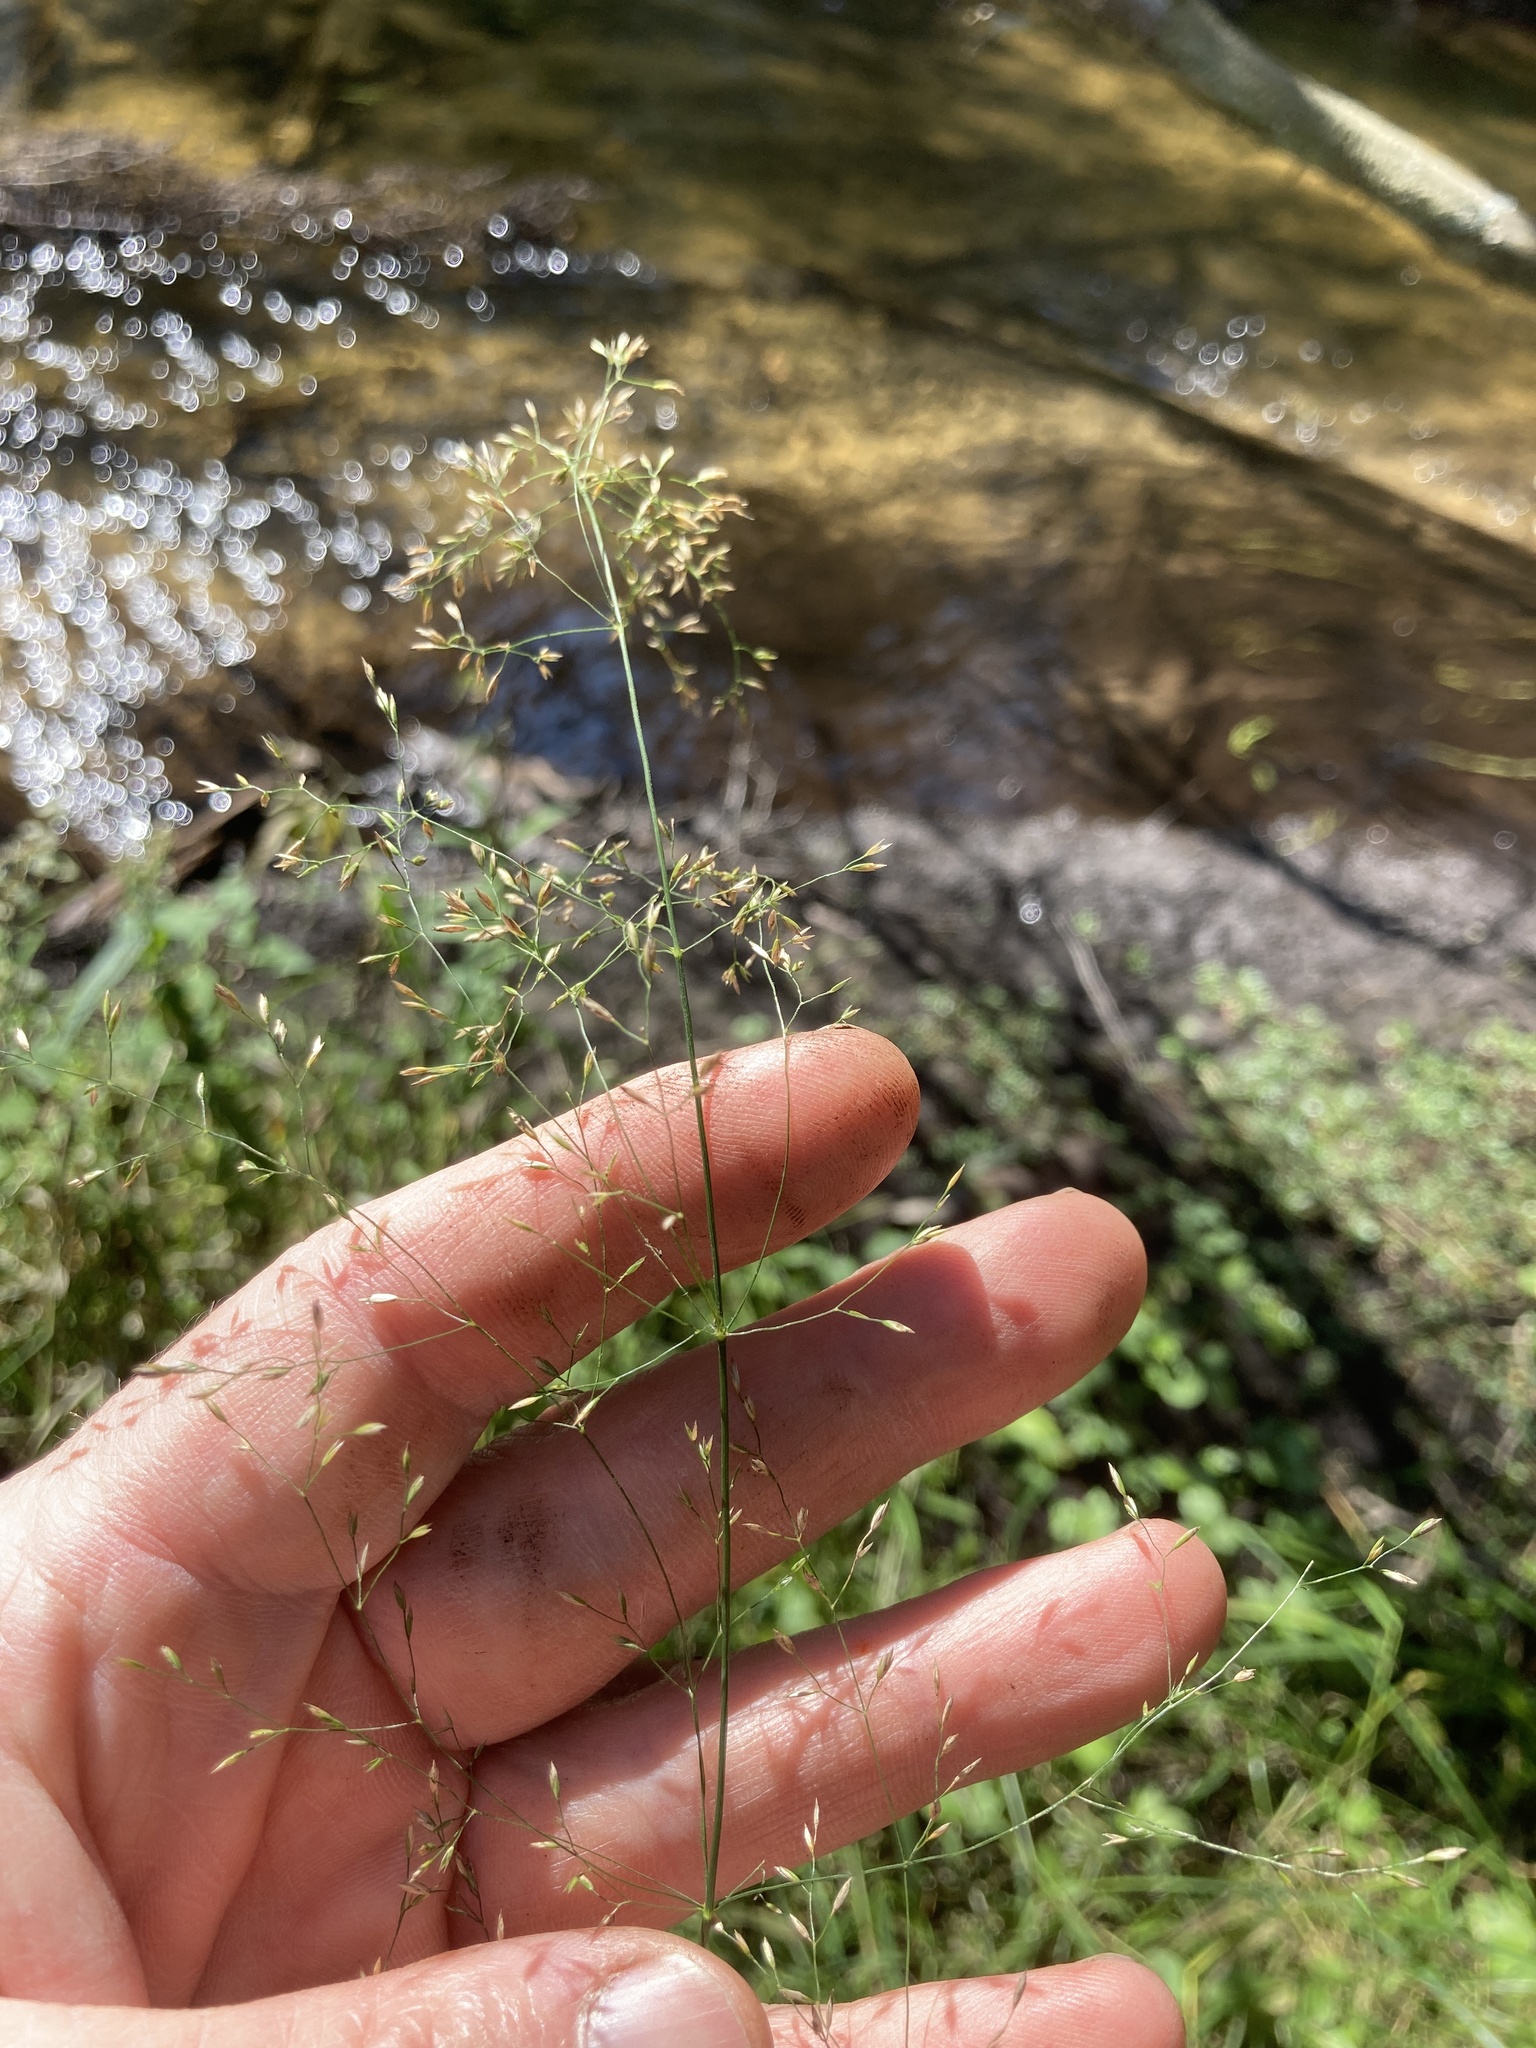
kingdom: Plantae
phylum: Tracheophyta
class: Liliopsida
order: Poales
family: Poaceae
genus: Poa
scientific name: Poa palustris
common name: Swamp meadow-grass
